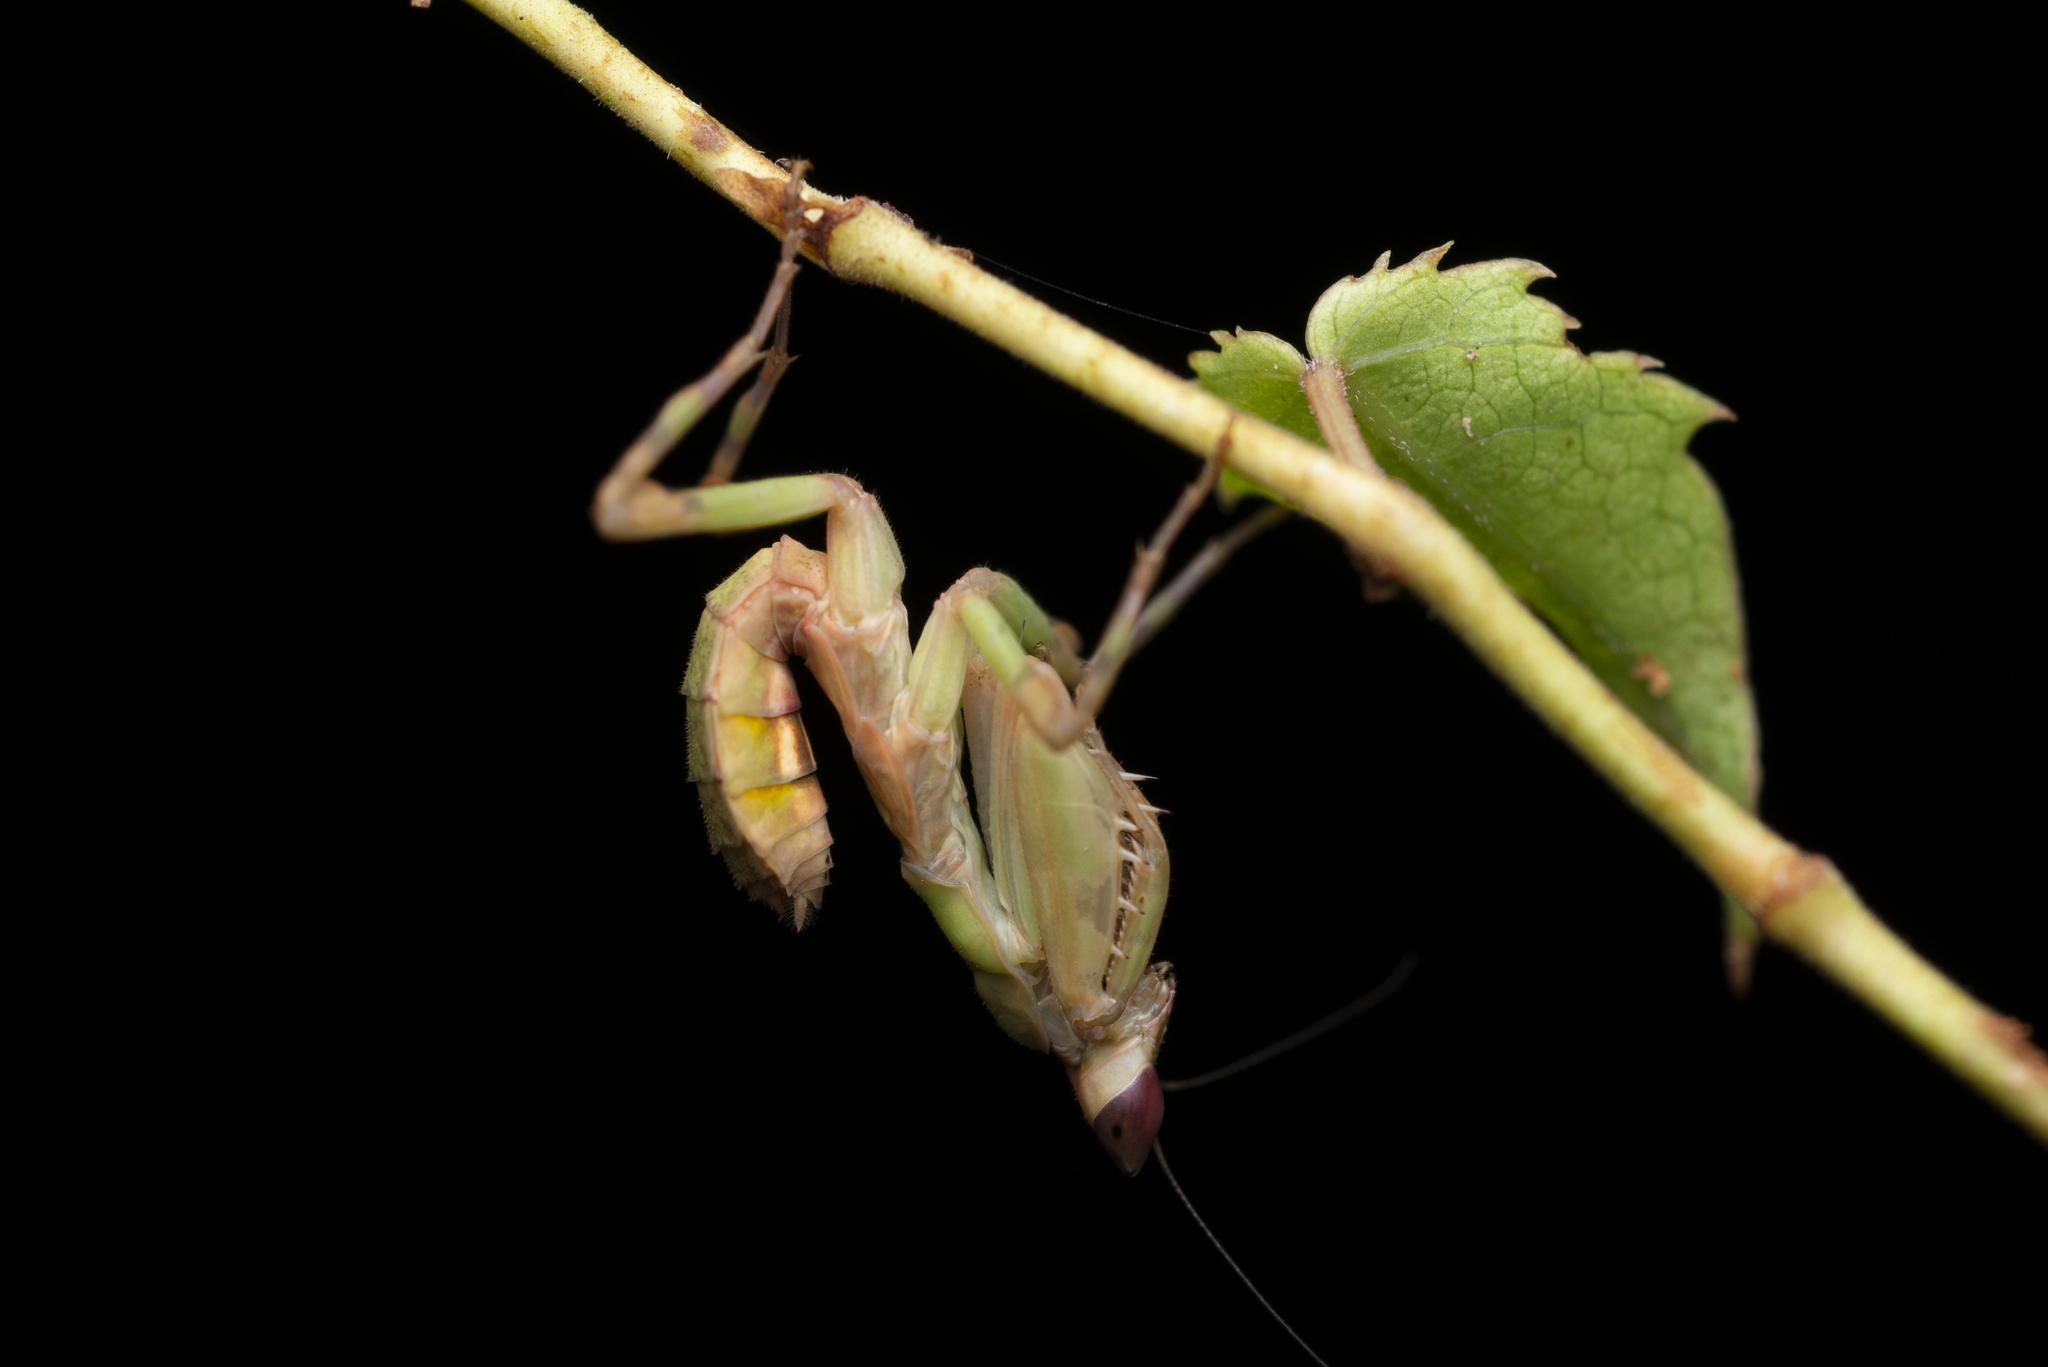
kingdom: Animalia
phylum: Arthropoda
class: Insecta
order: Mantodea
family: Hymenopodidae
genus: Creobroter
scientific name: Creobroter gemmatus
